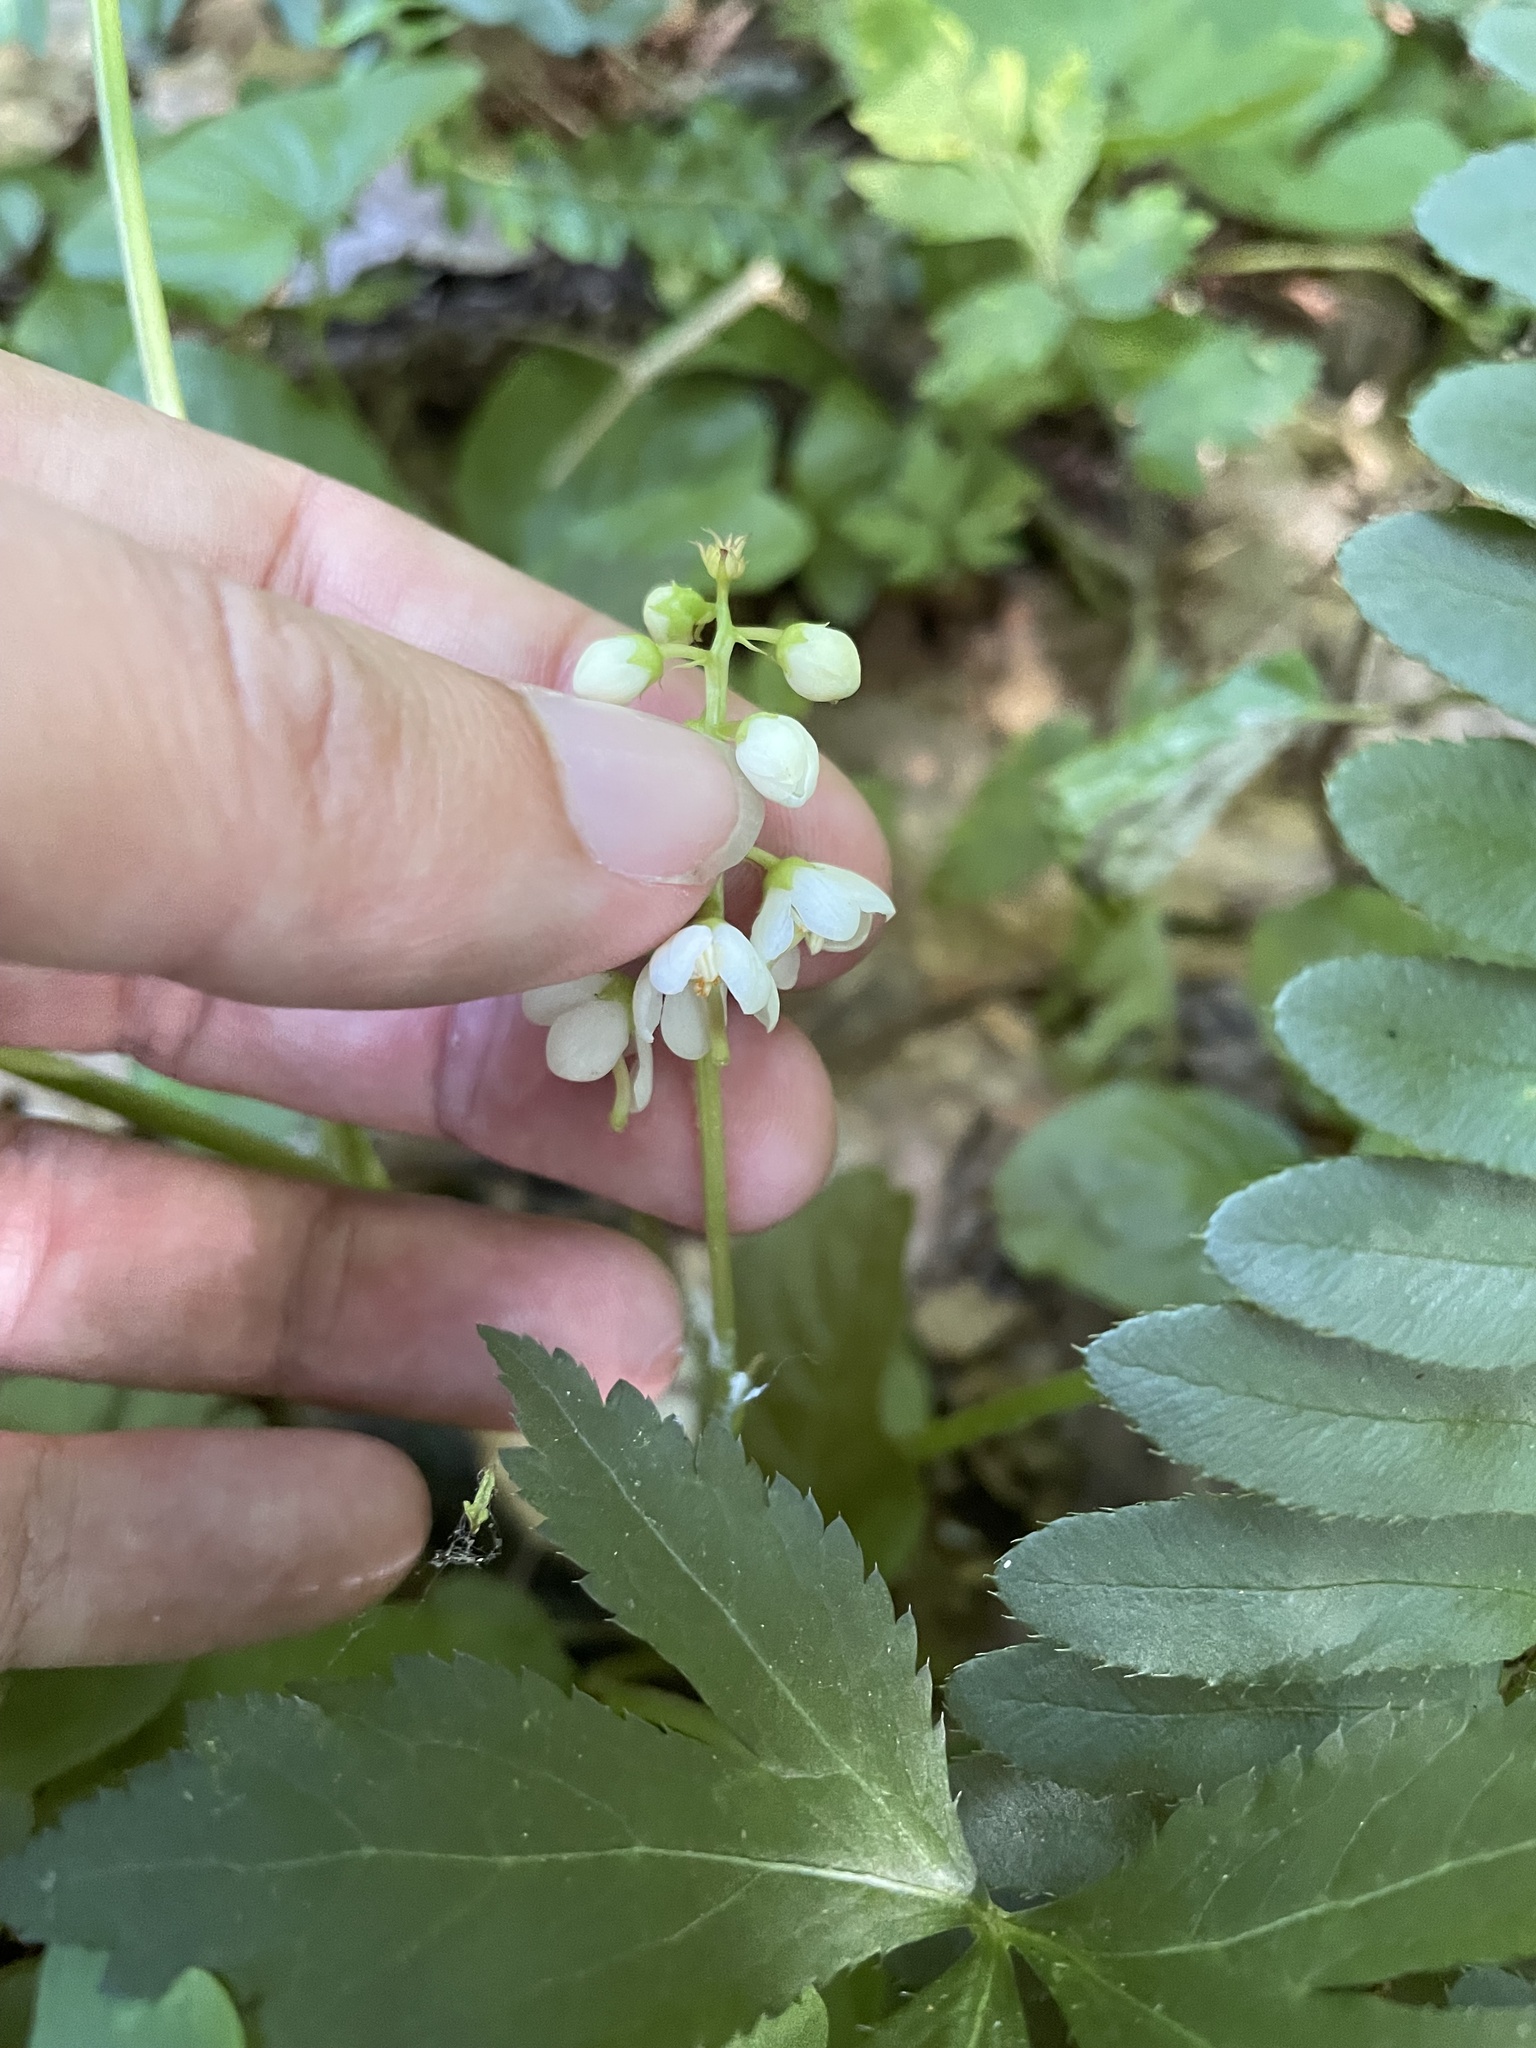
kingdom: Plantae
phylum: Tracheophyta
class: Magnoliopsida
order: Ericales
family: Ericaceae
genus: Pyrola
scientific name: Pyrola elliptica
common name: Shinleaf
